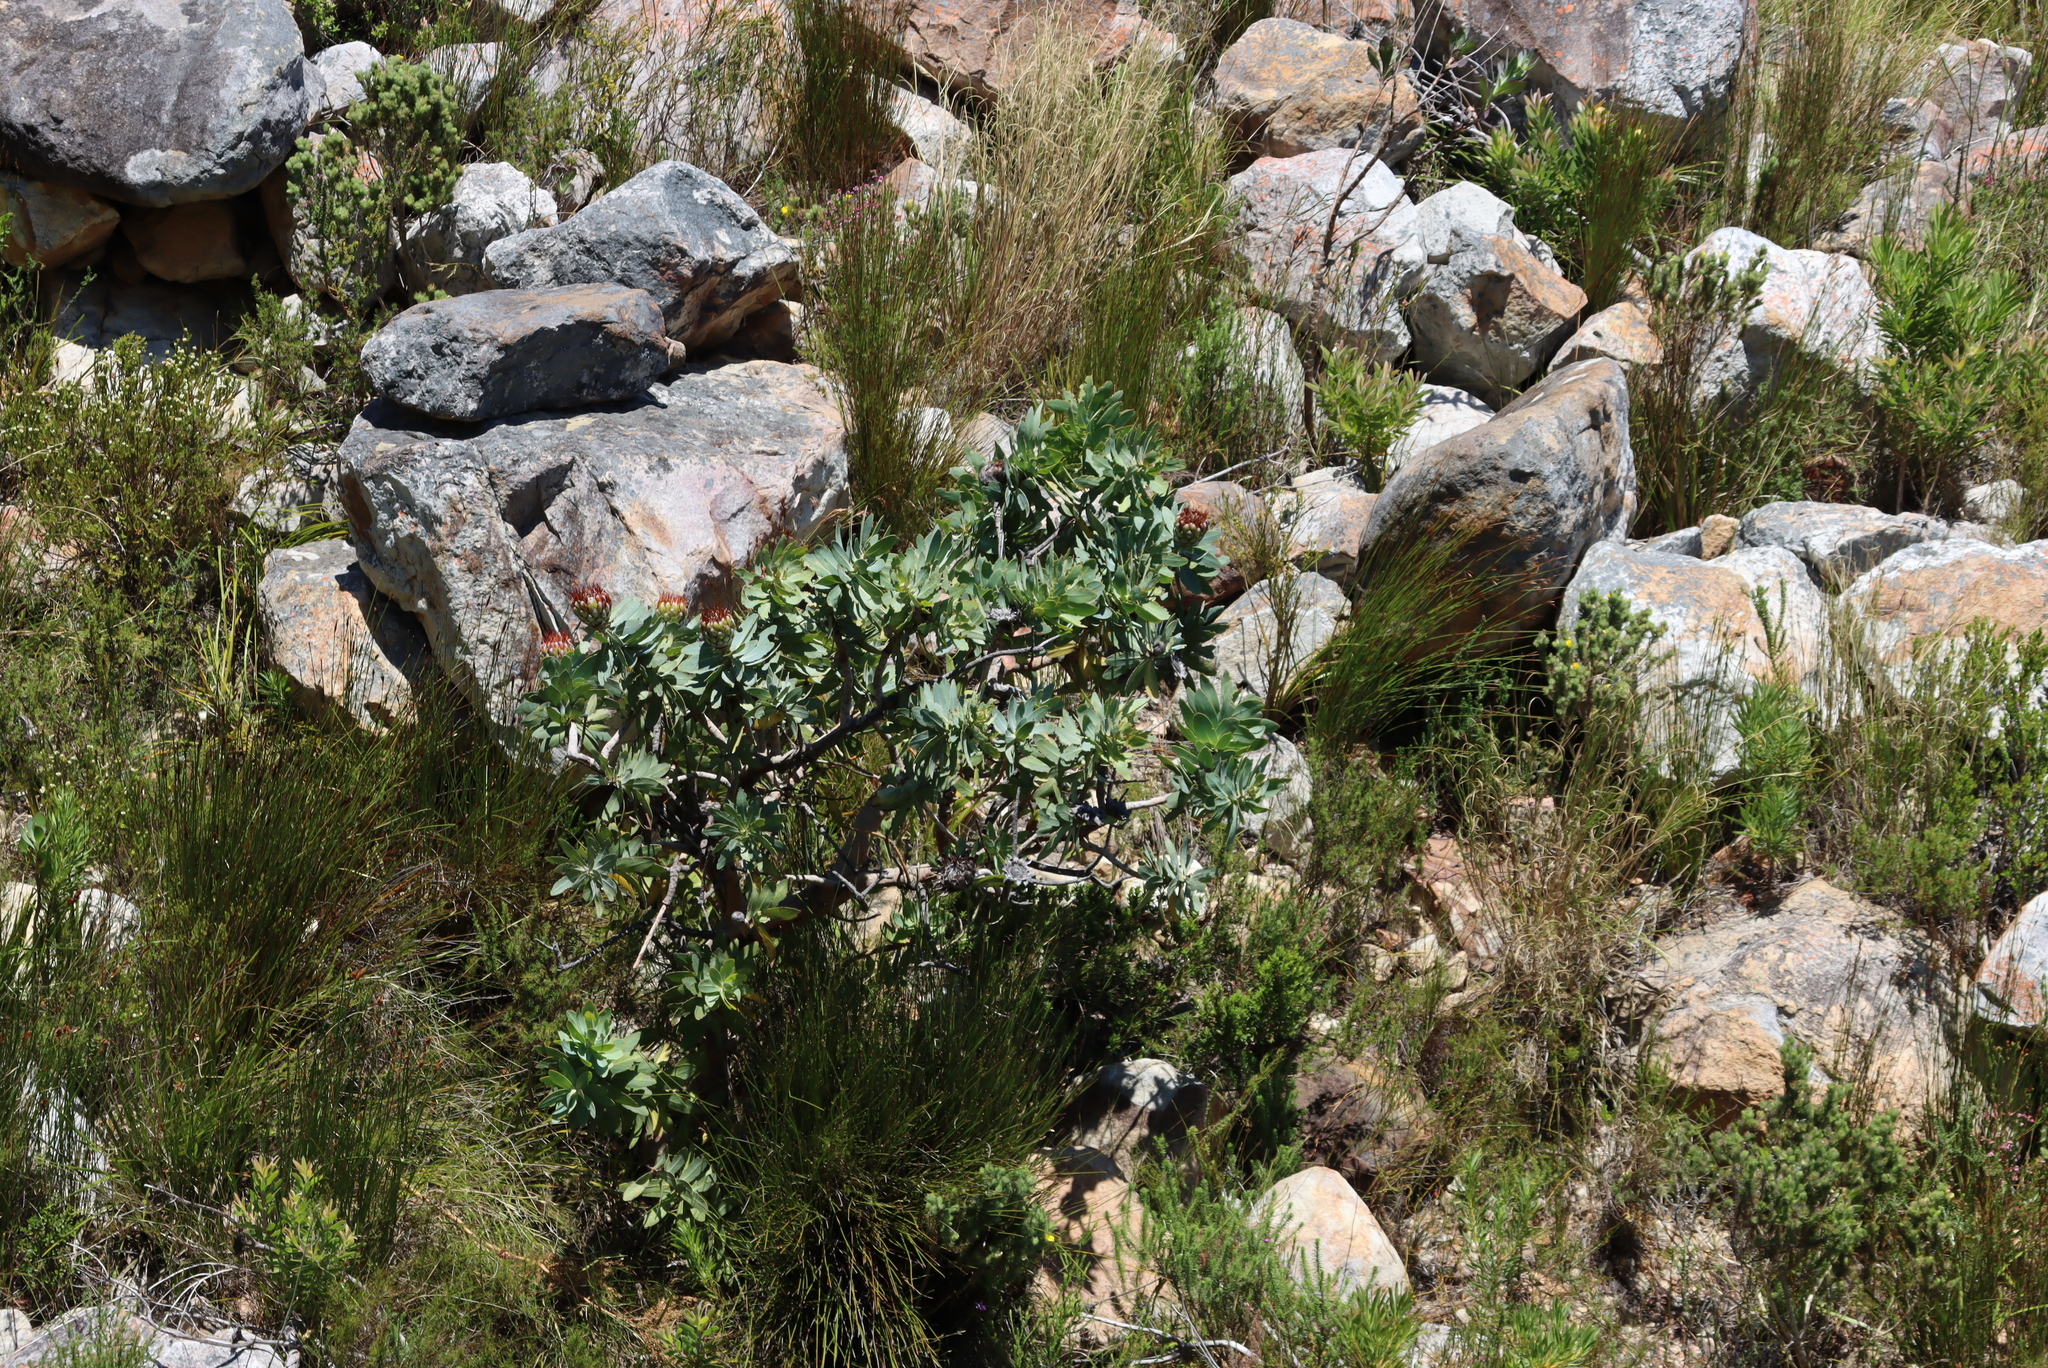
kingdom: Plantae
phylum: Tracheophyta
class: Magnoliopsida
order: Proteales
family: Proteaceae
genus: Protea
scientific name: Protea nitida
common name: Tree protea
